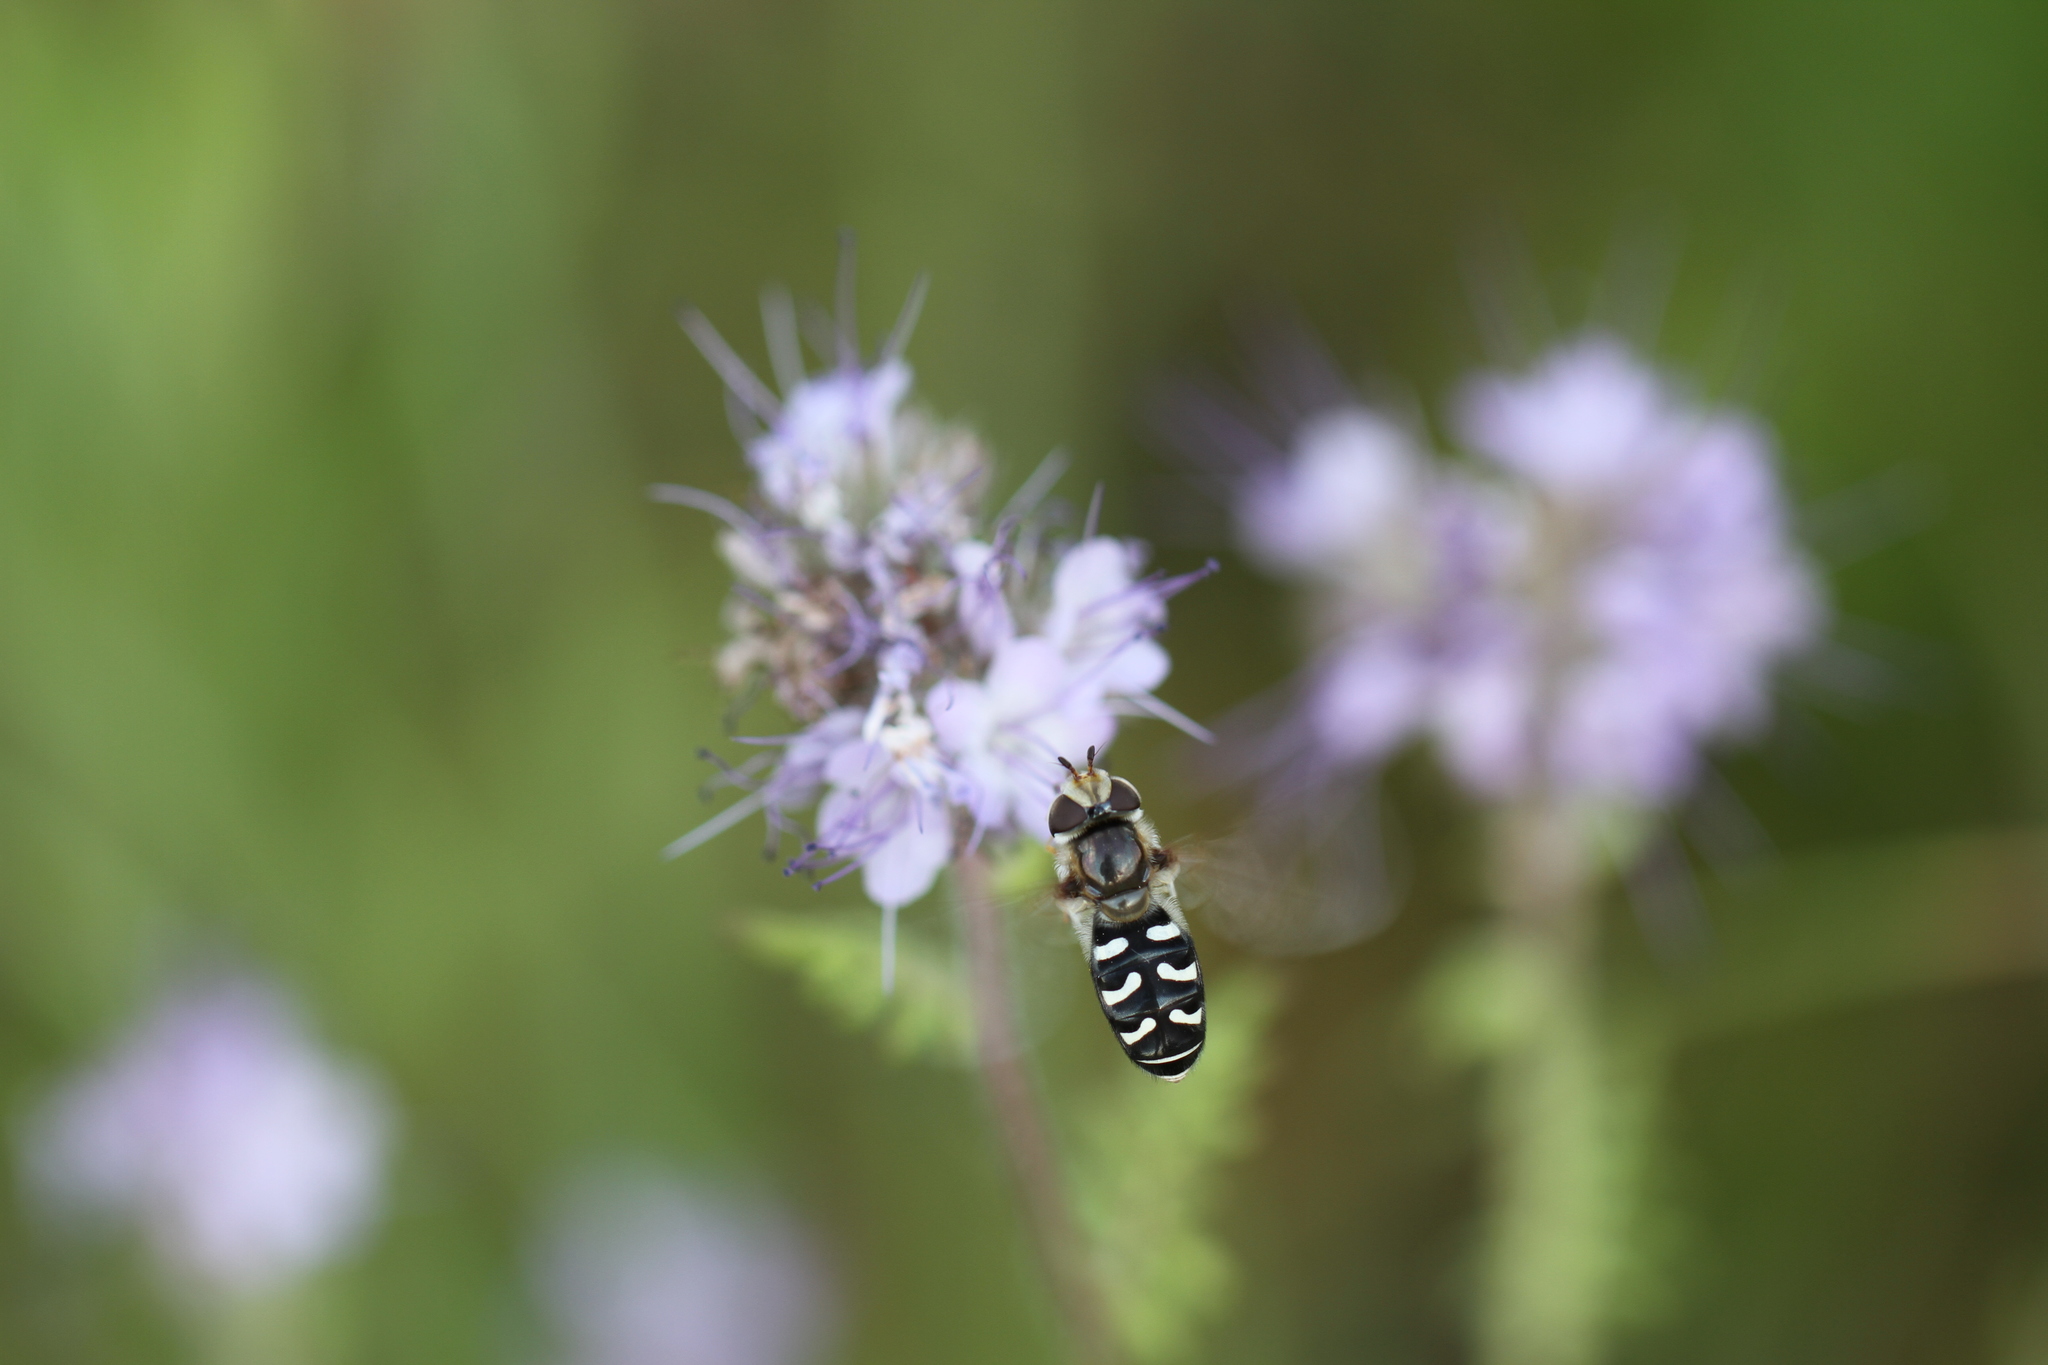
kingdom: Animalia
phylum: Arthropoda
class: Insecta
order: Diptera
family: Syrphidae
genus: Scaeva
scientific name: Scaeva pyrastri
